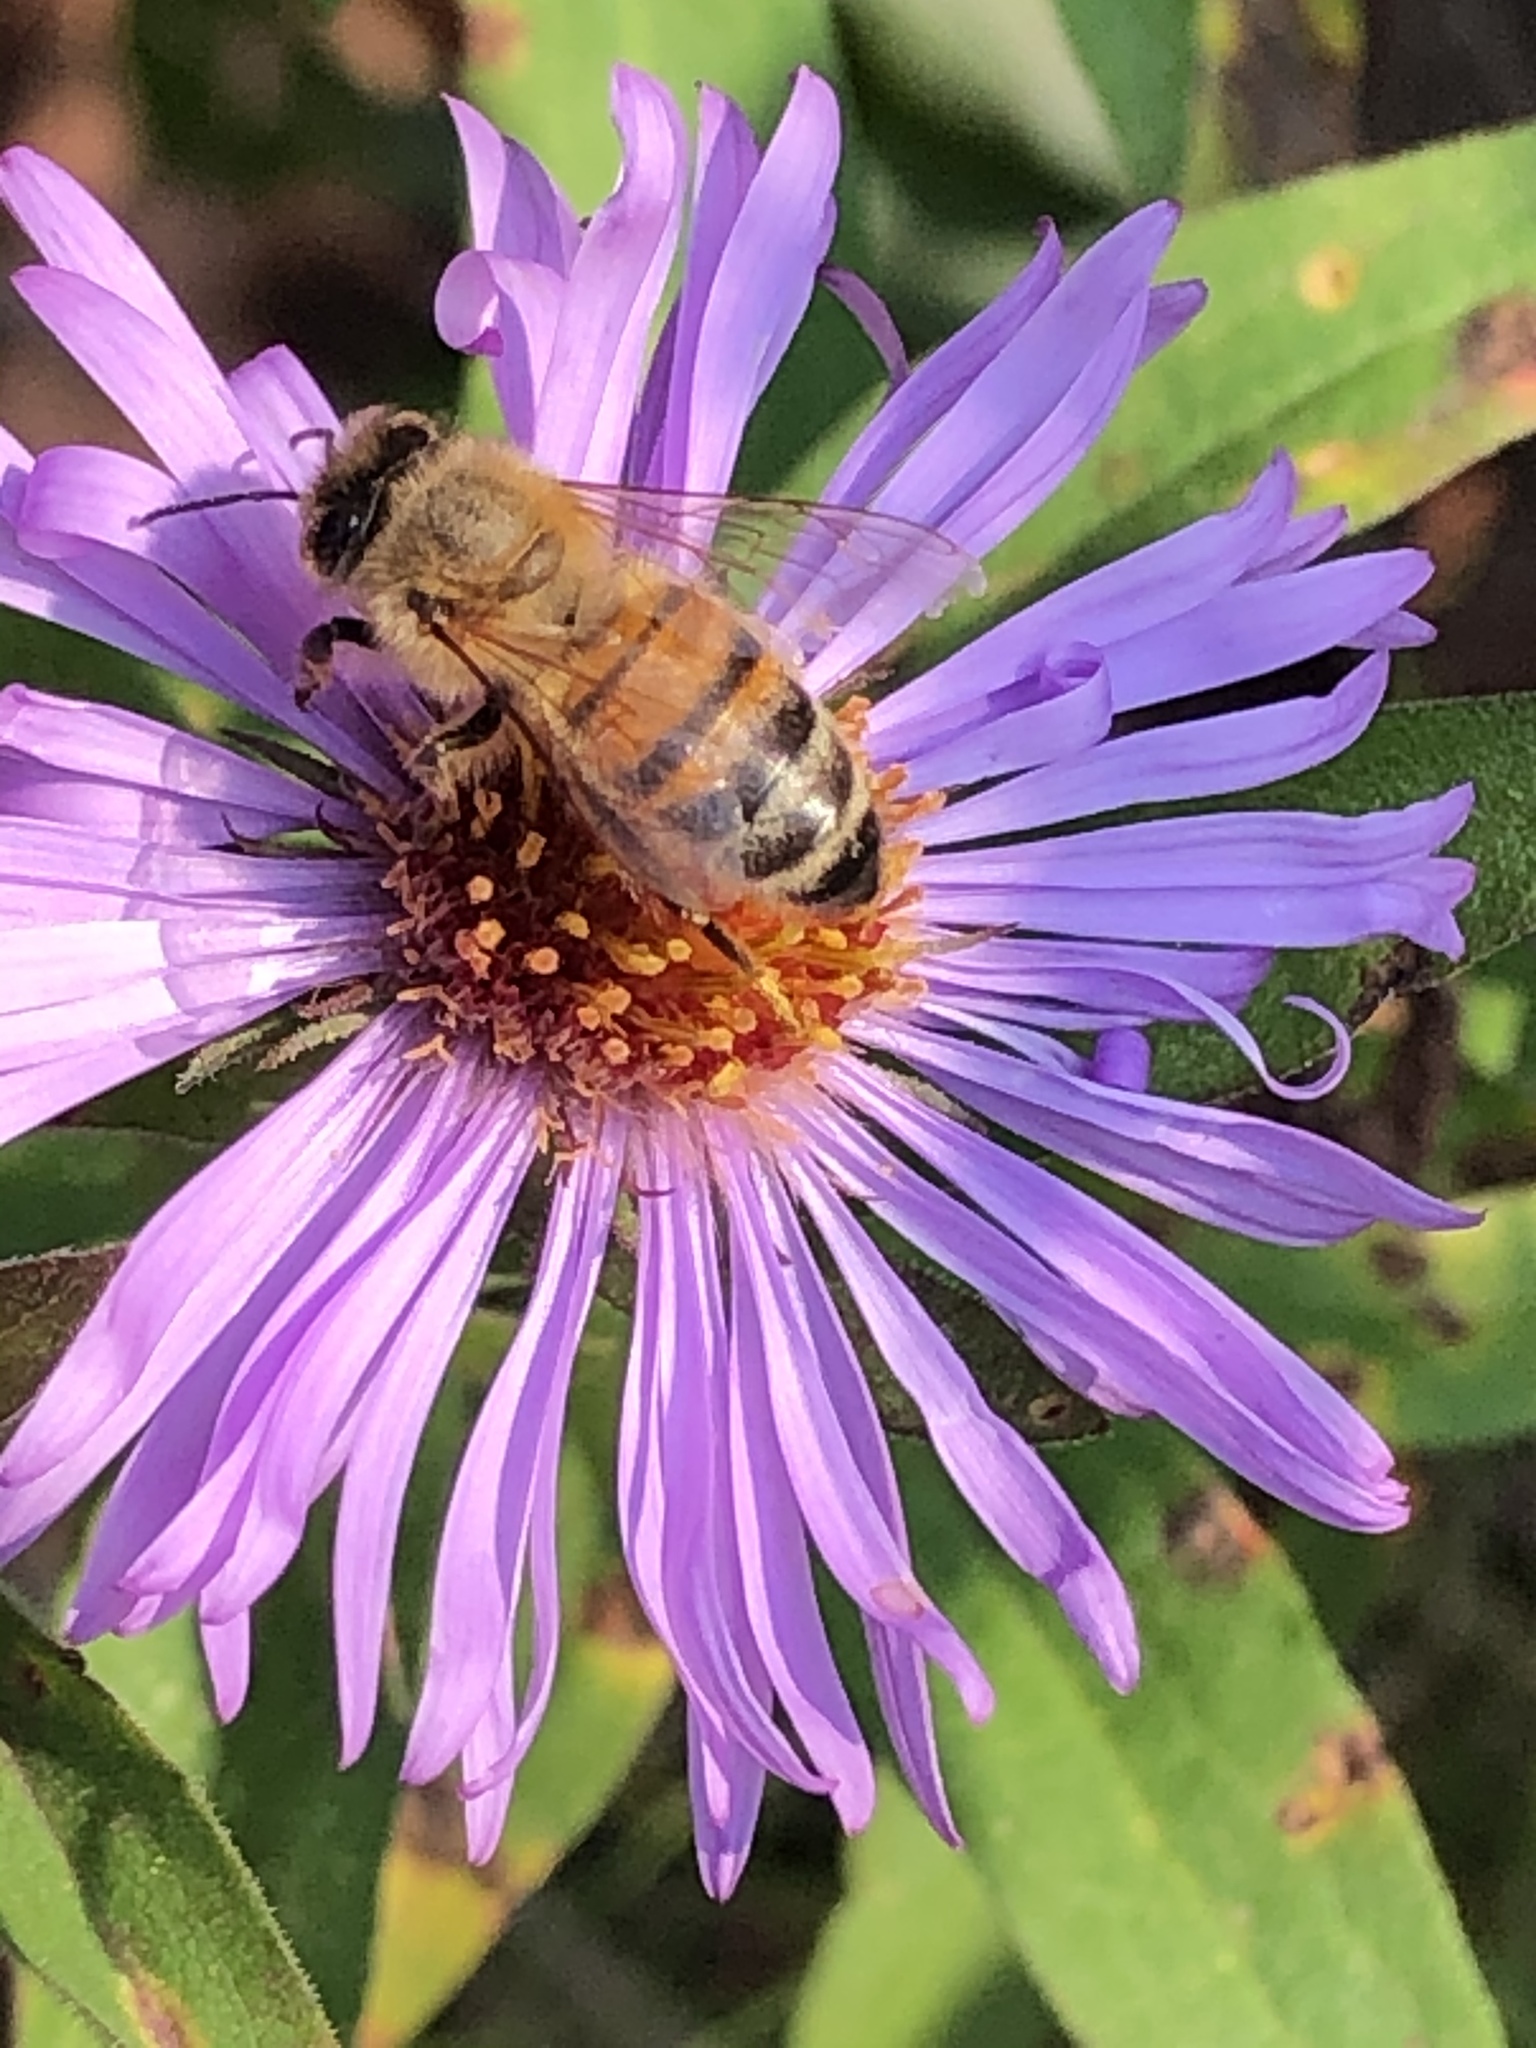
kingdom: Plantae
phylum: Tracheophyta
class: Magnoliopsida
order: Asterales
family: Asteraceae
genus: Symphyotrichum
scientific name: Symphyotrichum novae-angliae
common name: Michaelmas daisy
